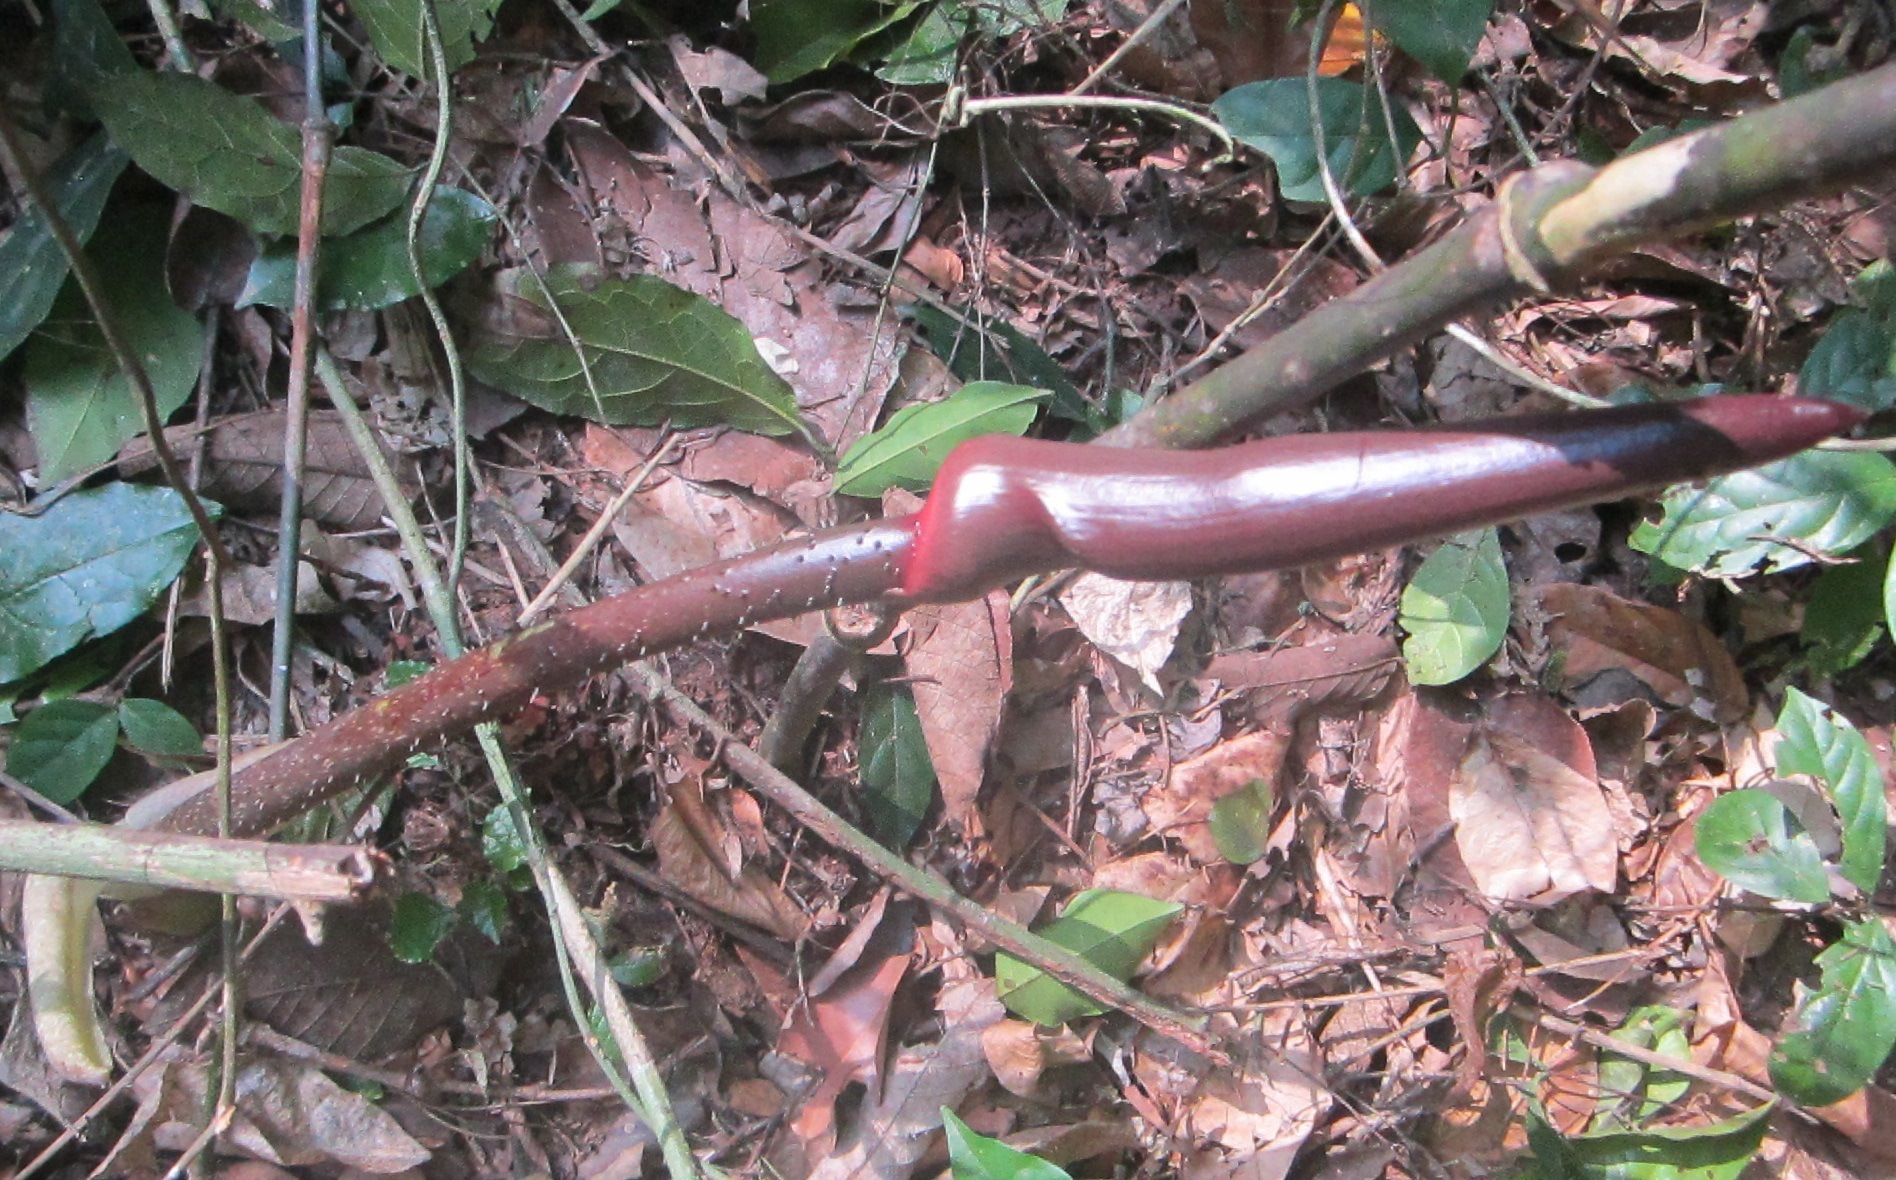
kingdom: Plantae
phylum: Tracheophyta
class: Liliopsida
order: Alismatales
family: Araceae
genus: Anchomanes
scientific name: Anchomanes difformis
